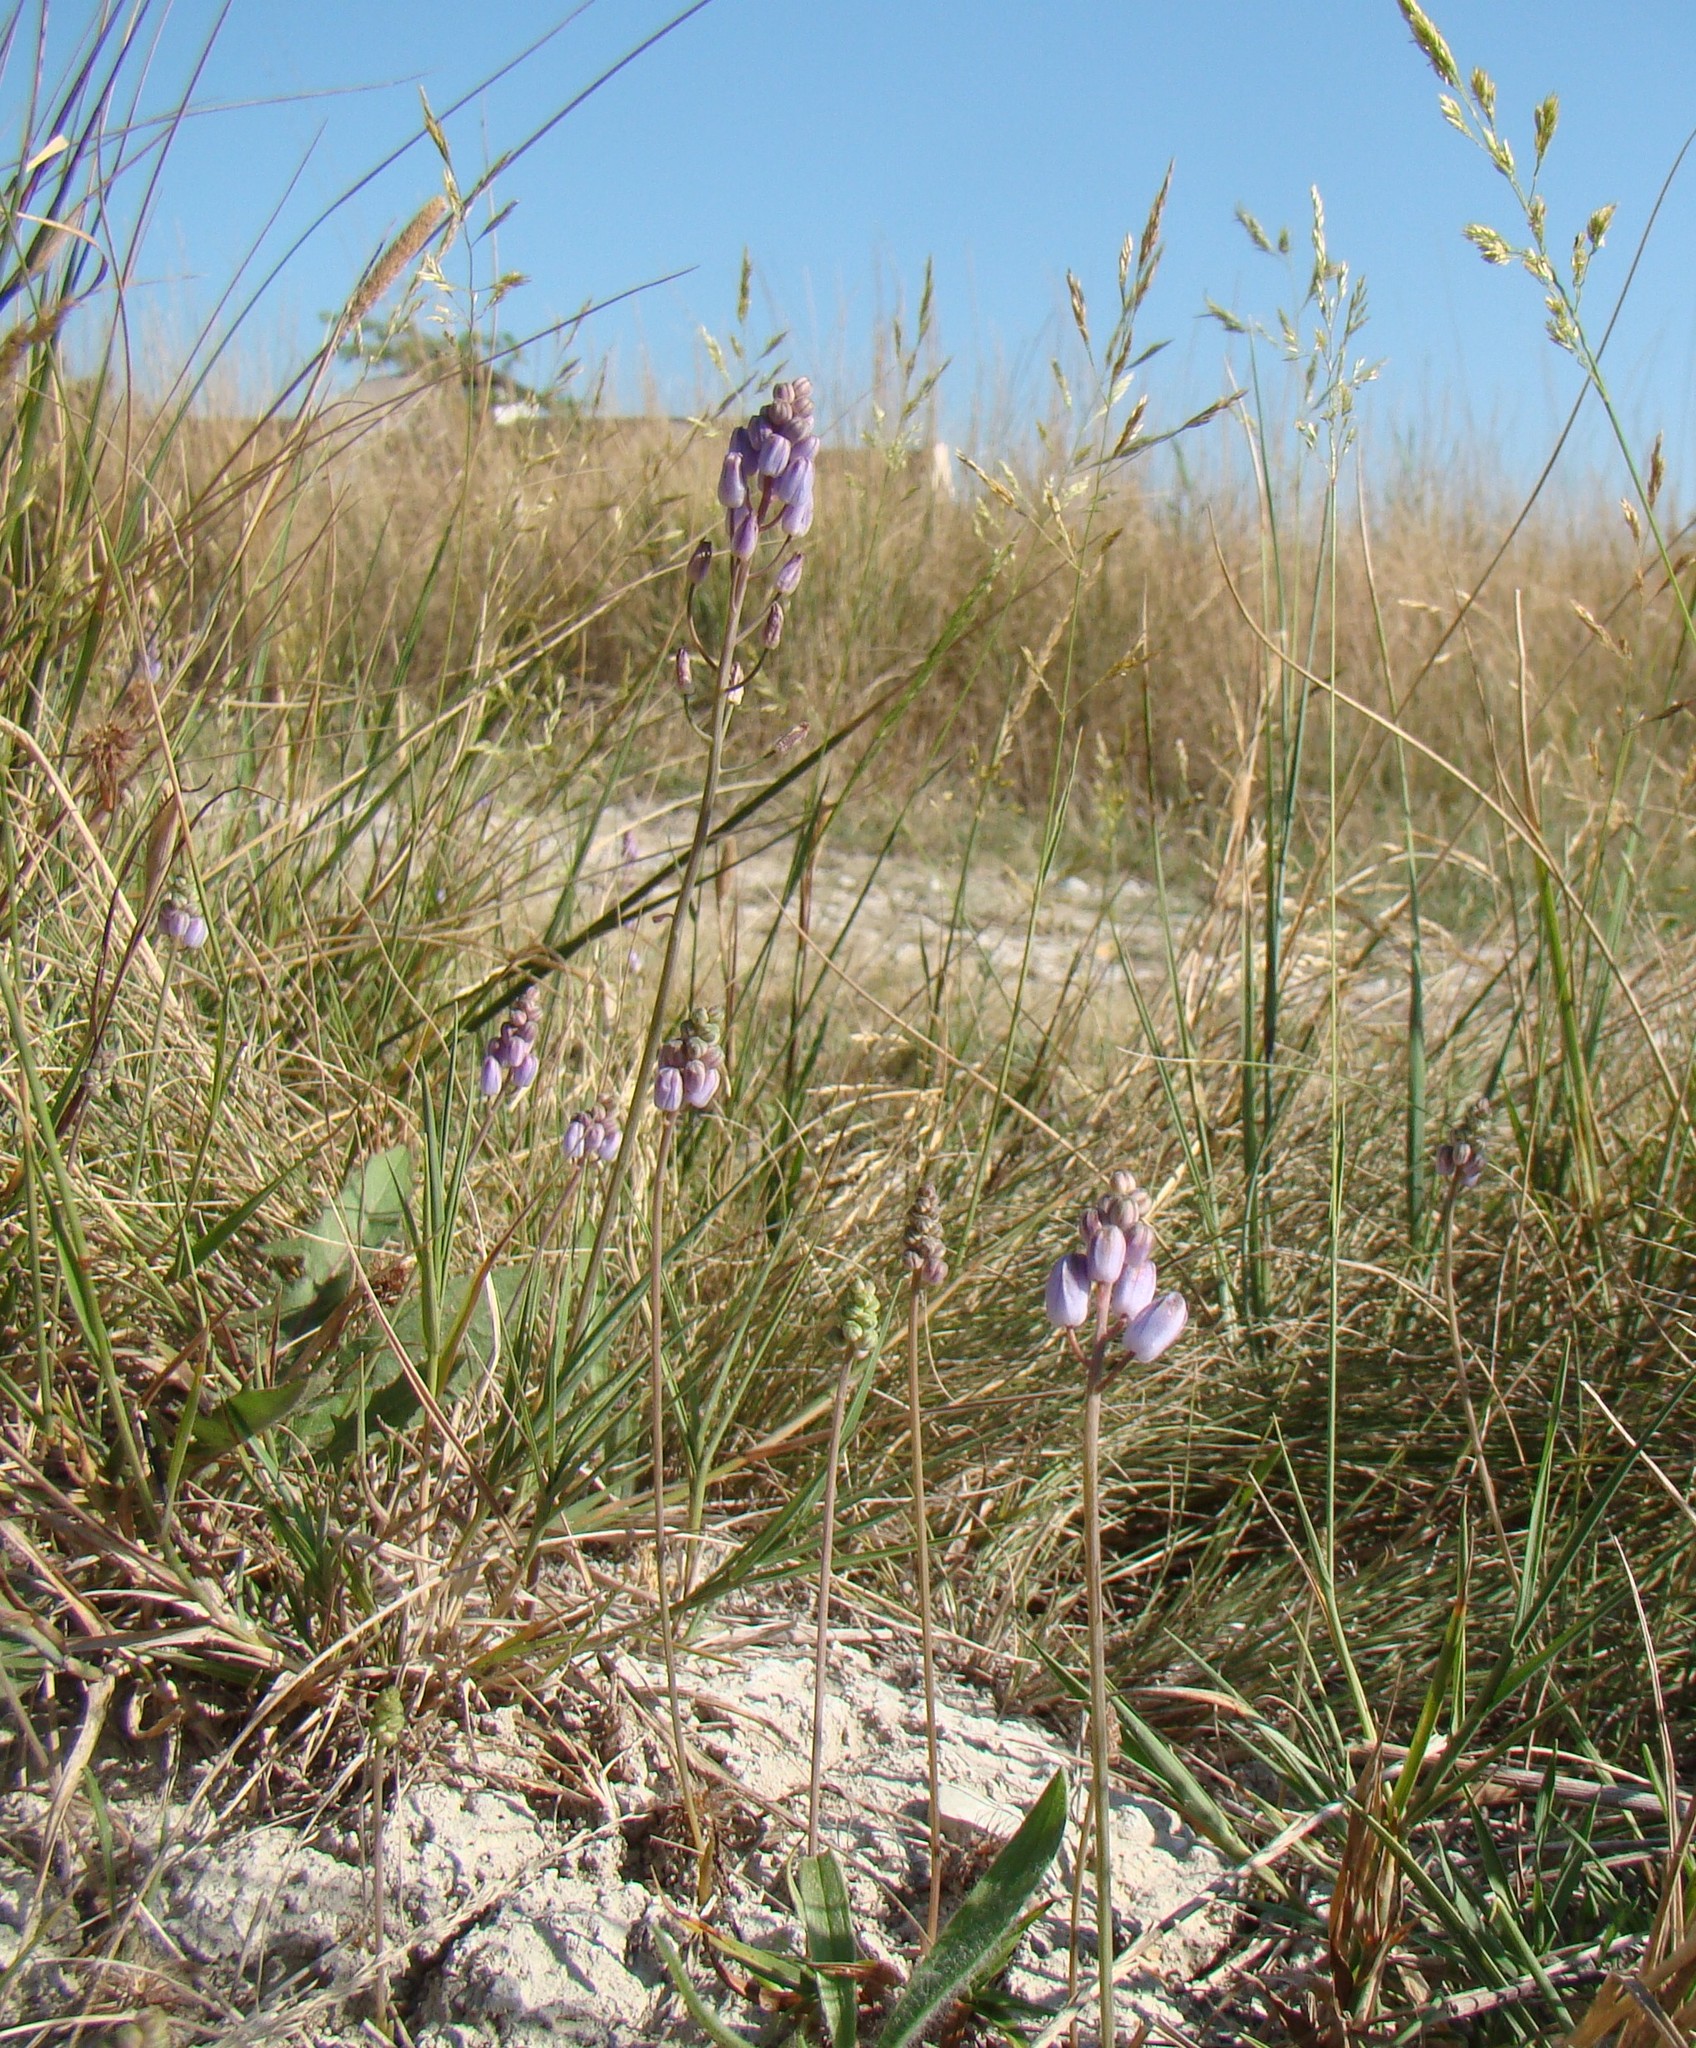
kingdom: Plantae
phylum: Tracheophyta
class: Liliopsida
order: Asparagales
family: Asparagaceae
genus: Prospero
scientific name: Prospero autumnale
